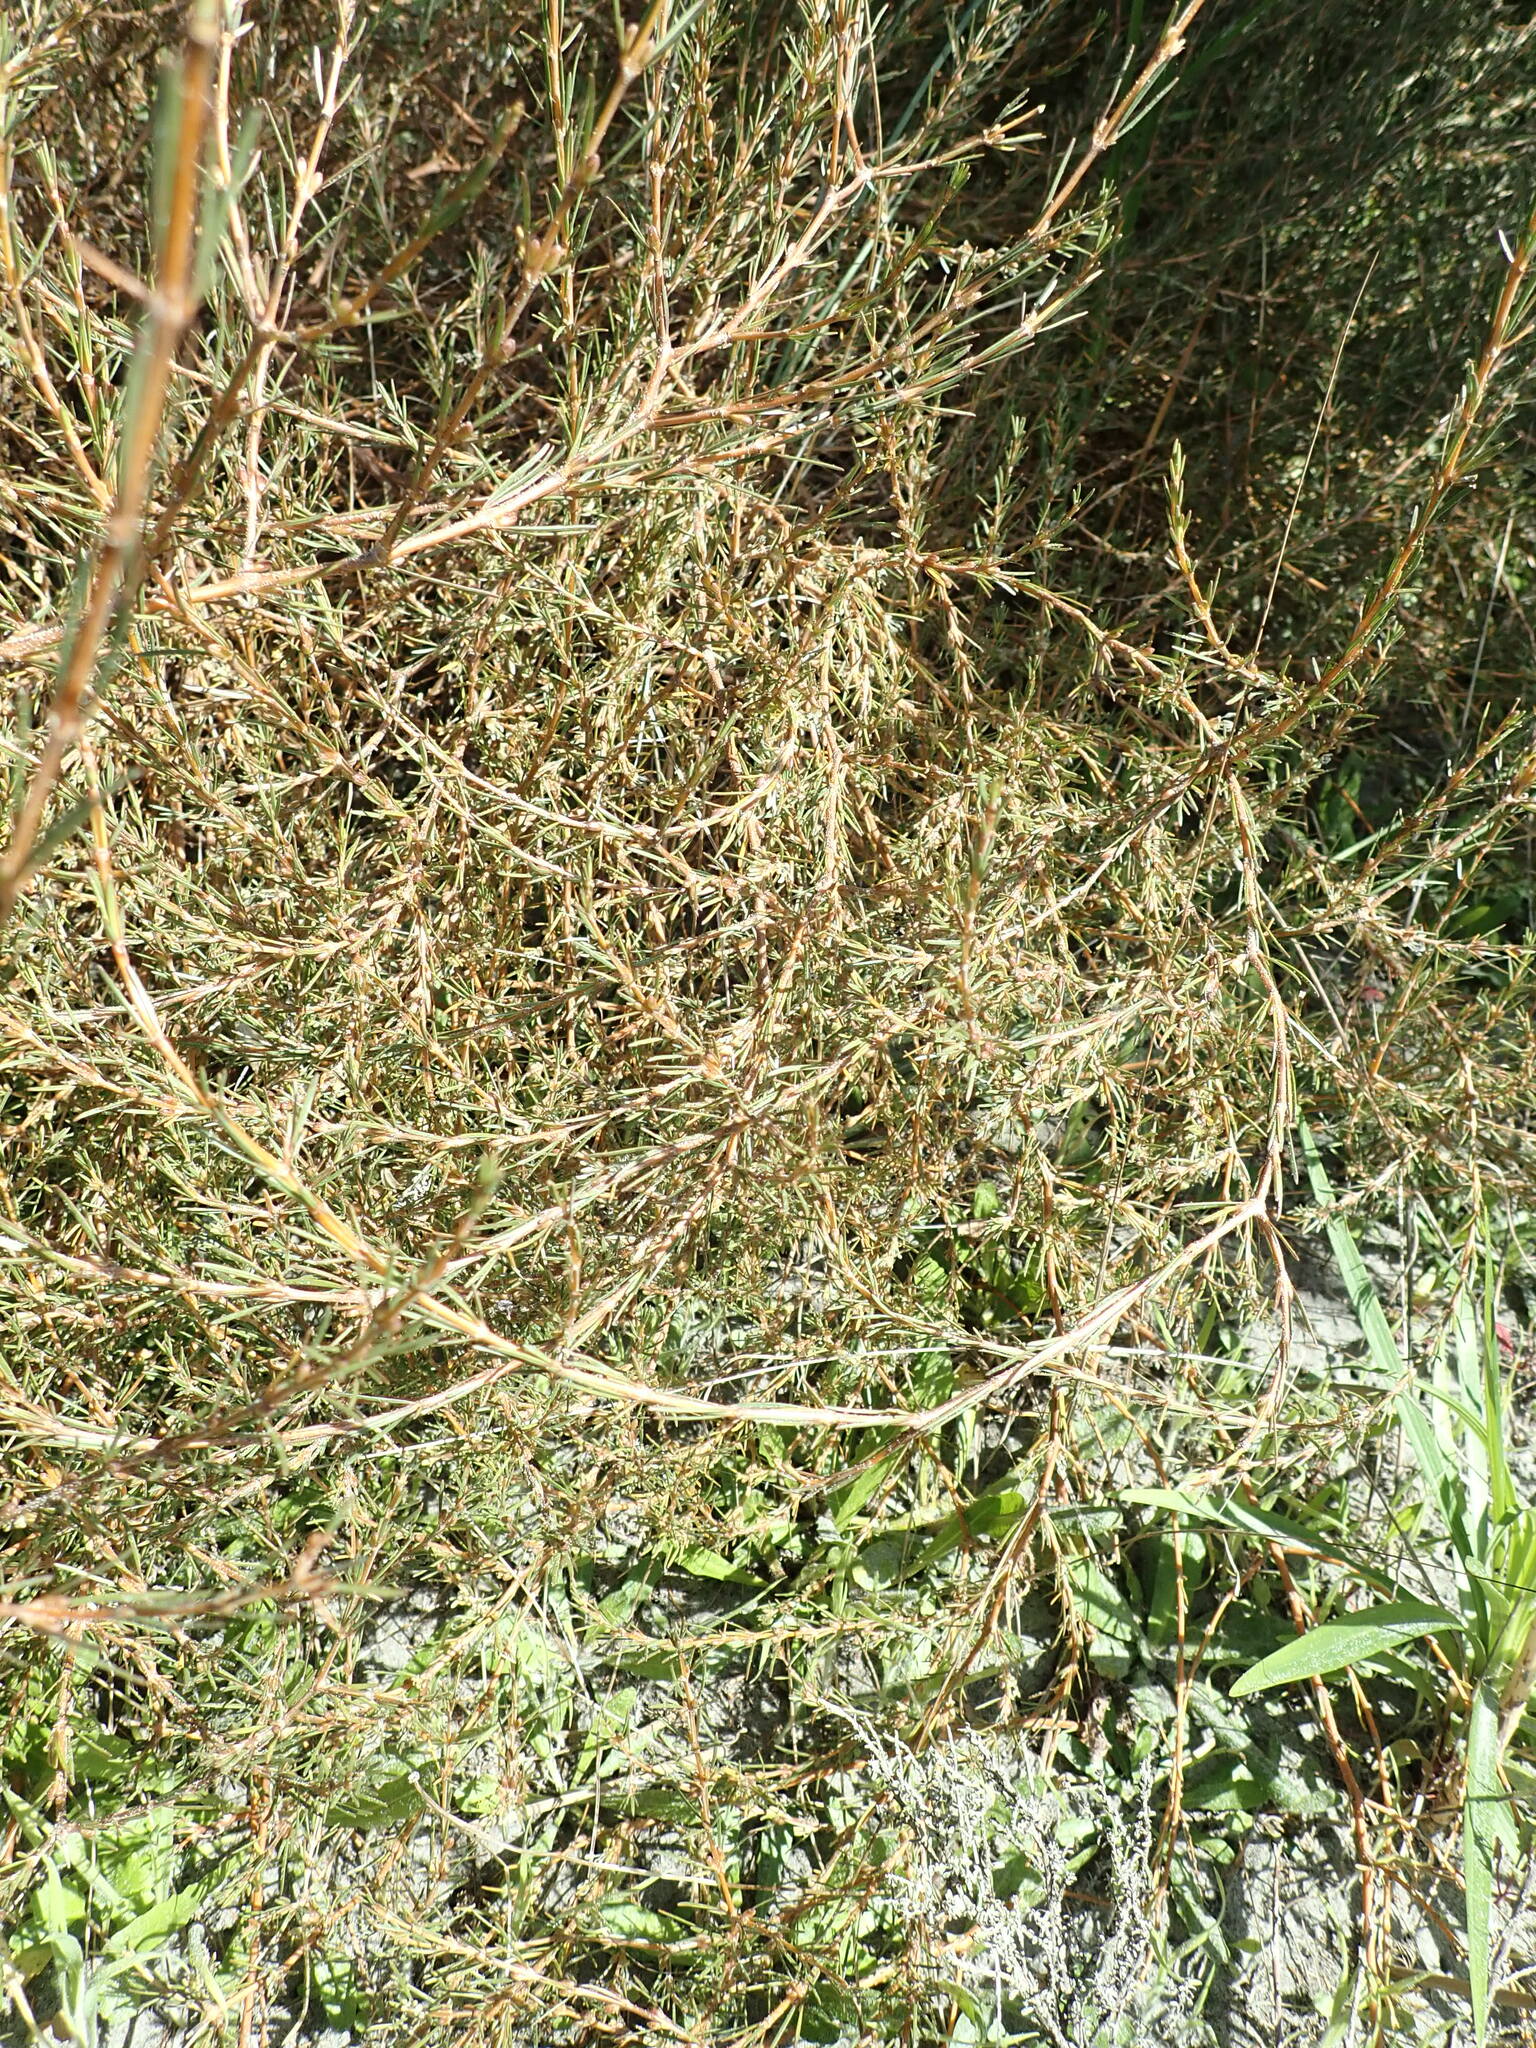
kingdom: Plantae
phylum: Tracheophyta
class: Magnoliopsida
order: Gentianales
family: Rubiaceae
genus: Coprosma
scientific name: Coprosma acerosa
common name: Sand coprosma
